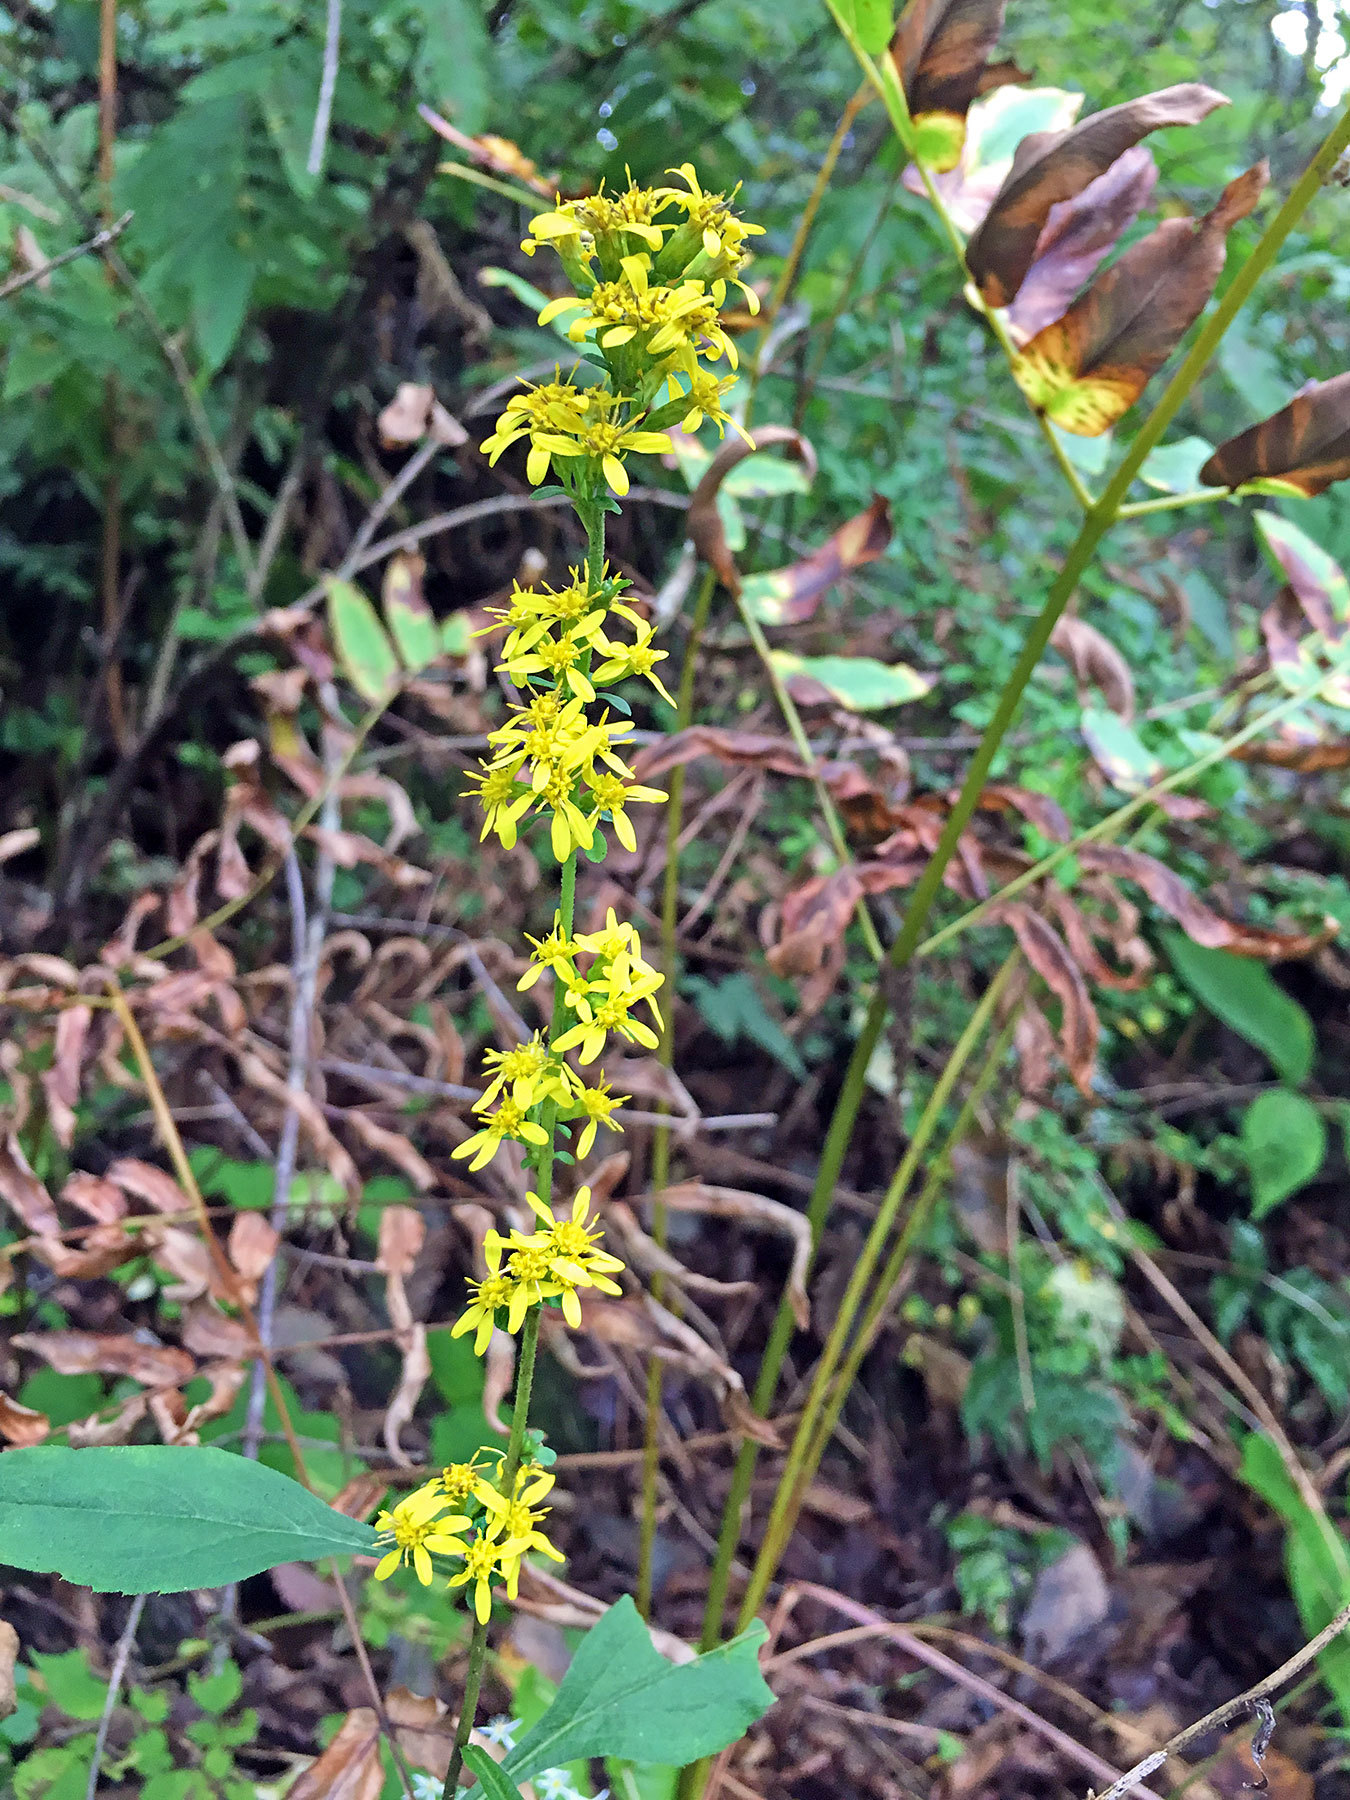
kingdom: Plantae
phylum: Tracheophyta
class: Magnoliopsida
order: Asterales
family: Asteraceae
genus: Solidago
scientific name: Solidago virgaurea
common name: Goldenrod
